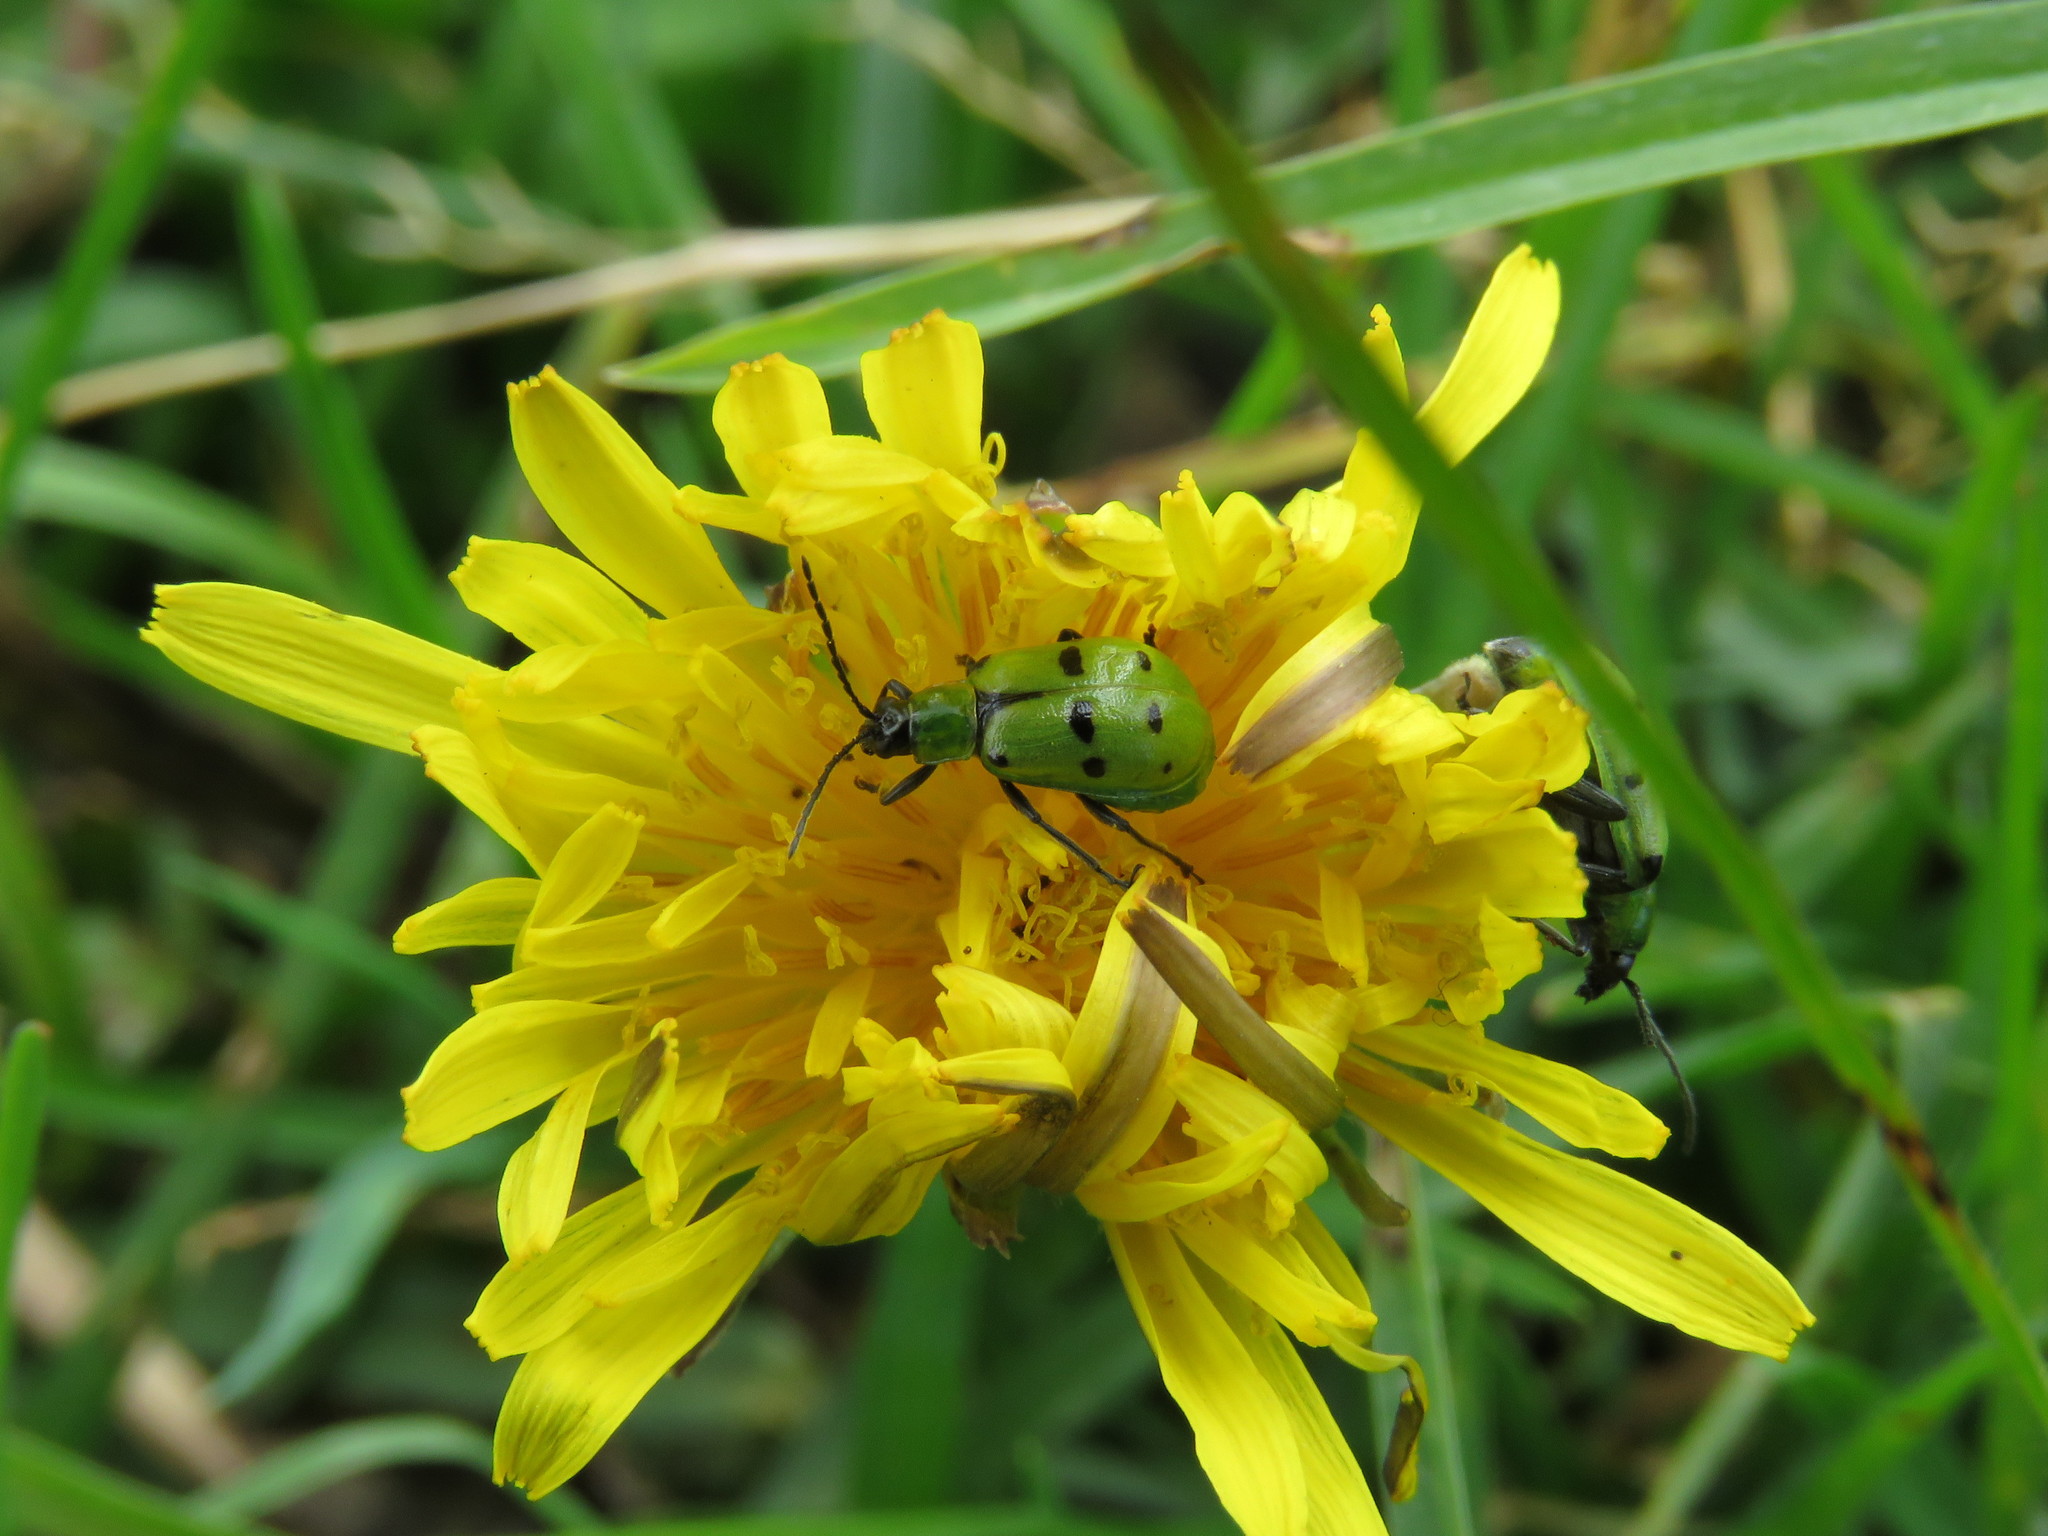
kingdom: Animalia
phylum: Arthropoda
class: Insecta
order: Coleoptera
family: Chrysomelidae
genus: Diabrotica
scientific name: Diabrotica decempunctata
